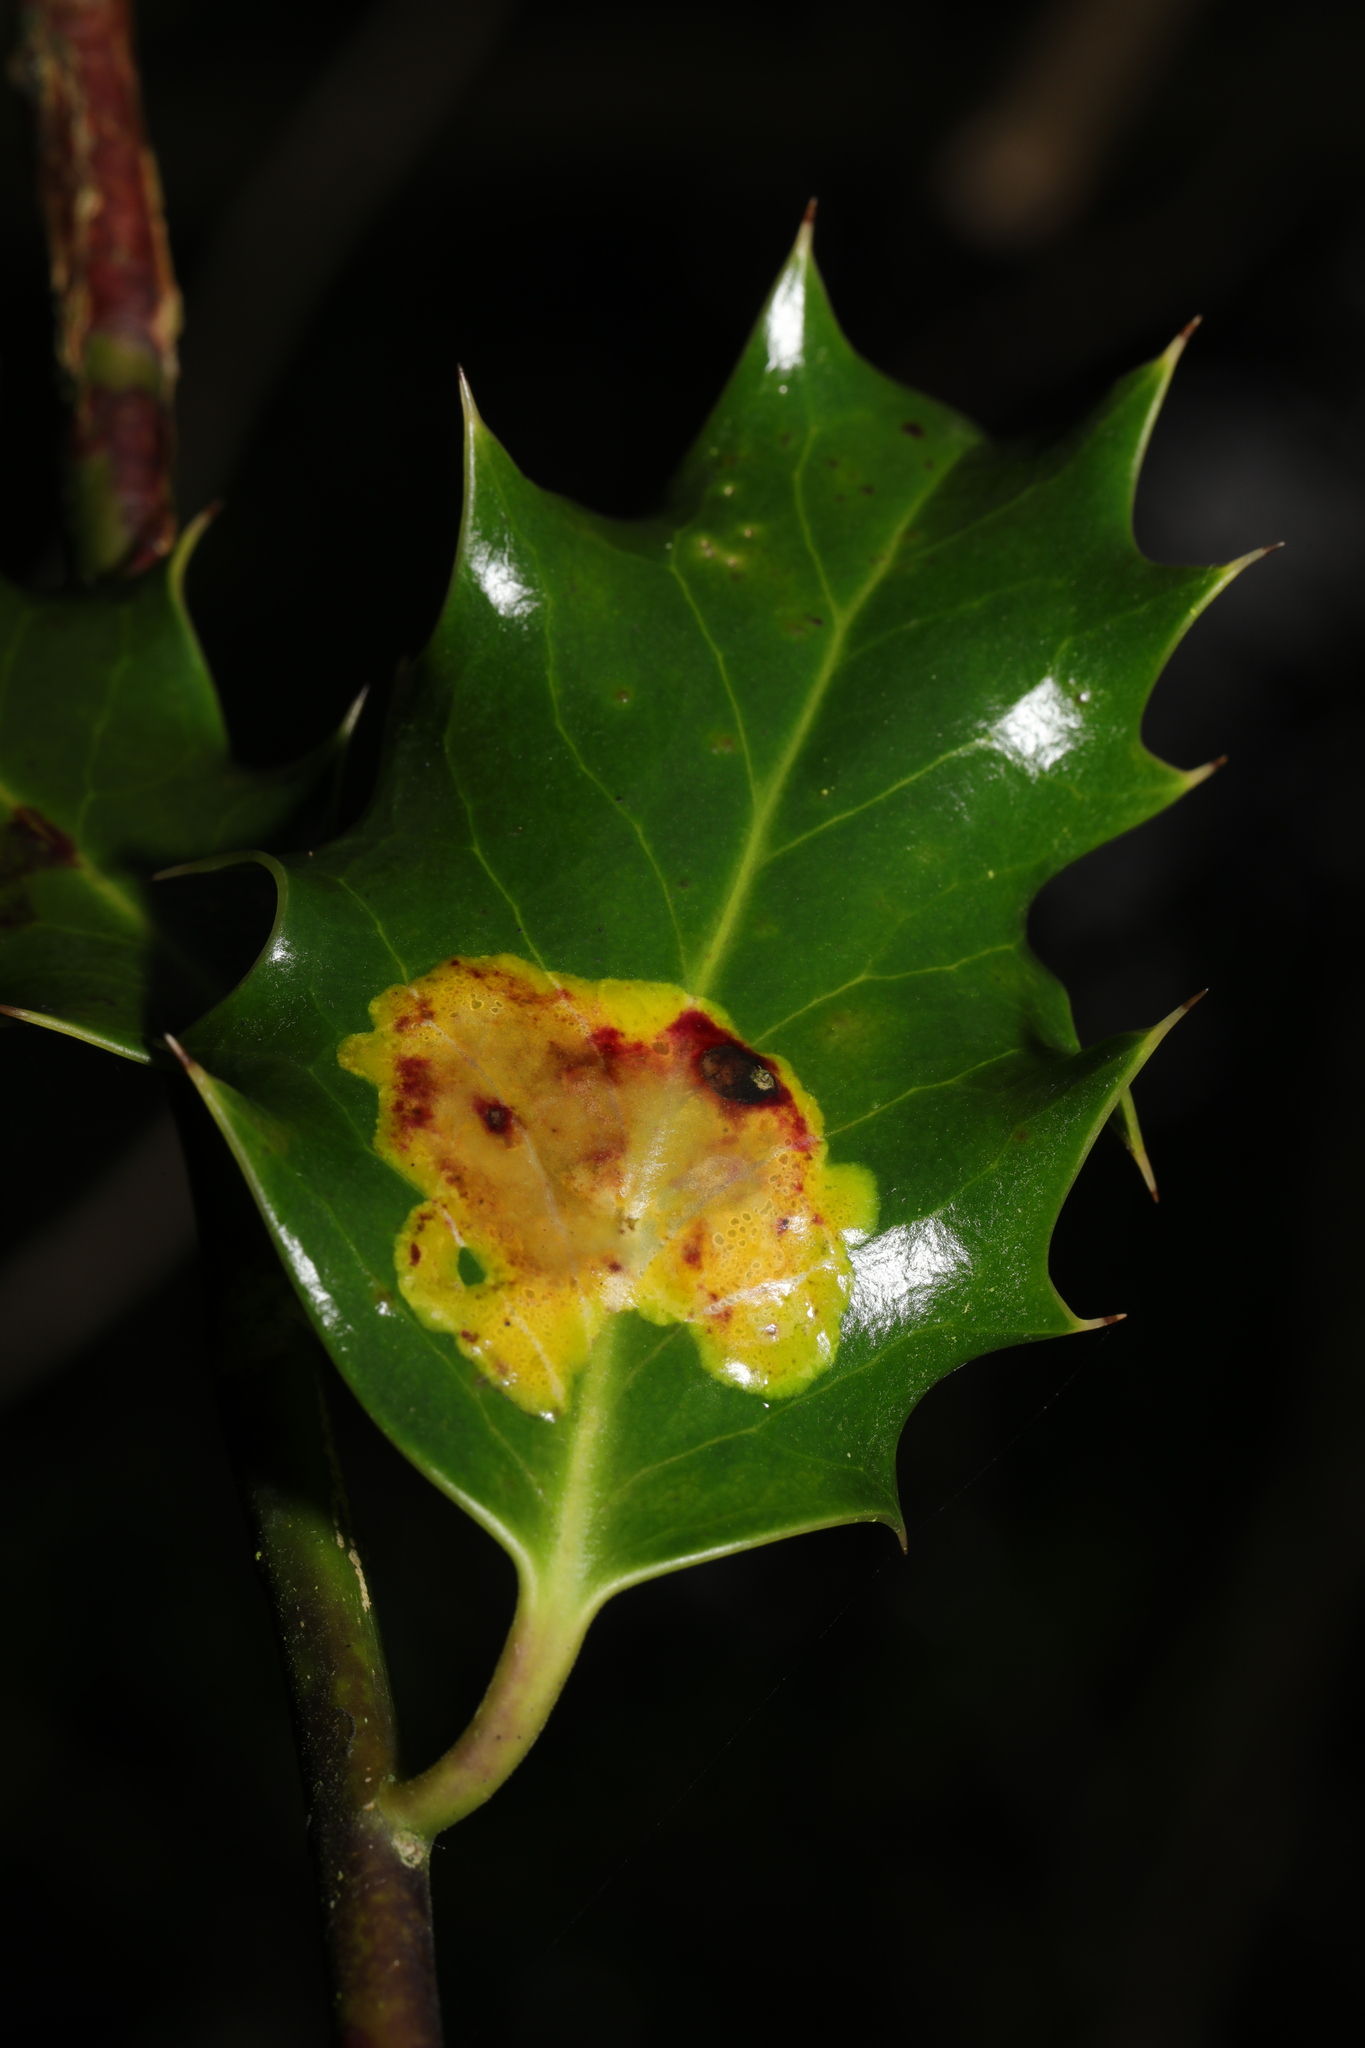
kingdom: Animalia
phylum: Arthropoda
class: Insecta
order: Diptera
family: Agromyzidae
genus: Phytomyza
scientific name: Phytomyza ilicis
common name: Holly leafminer
